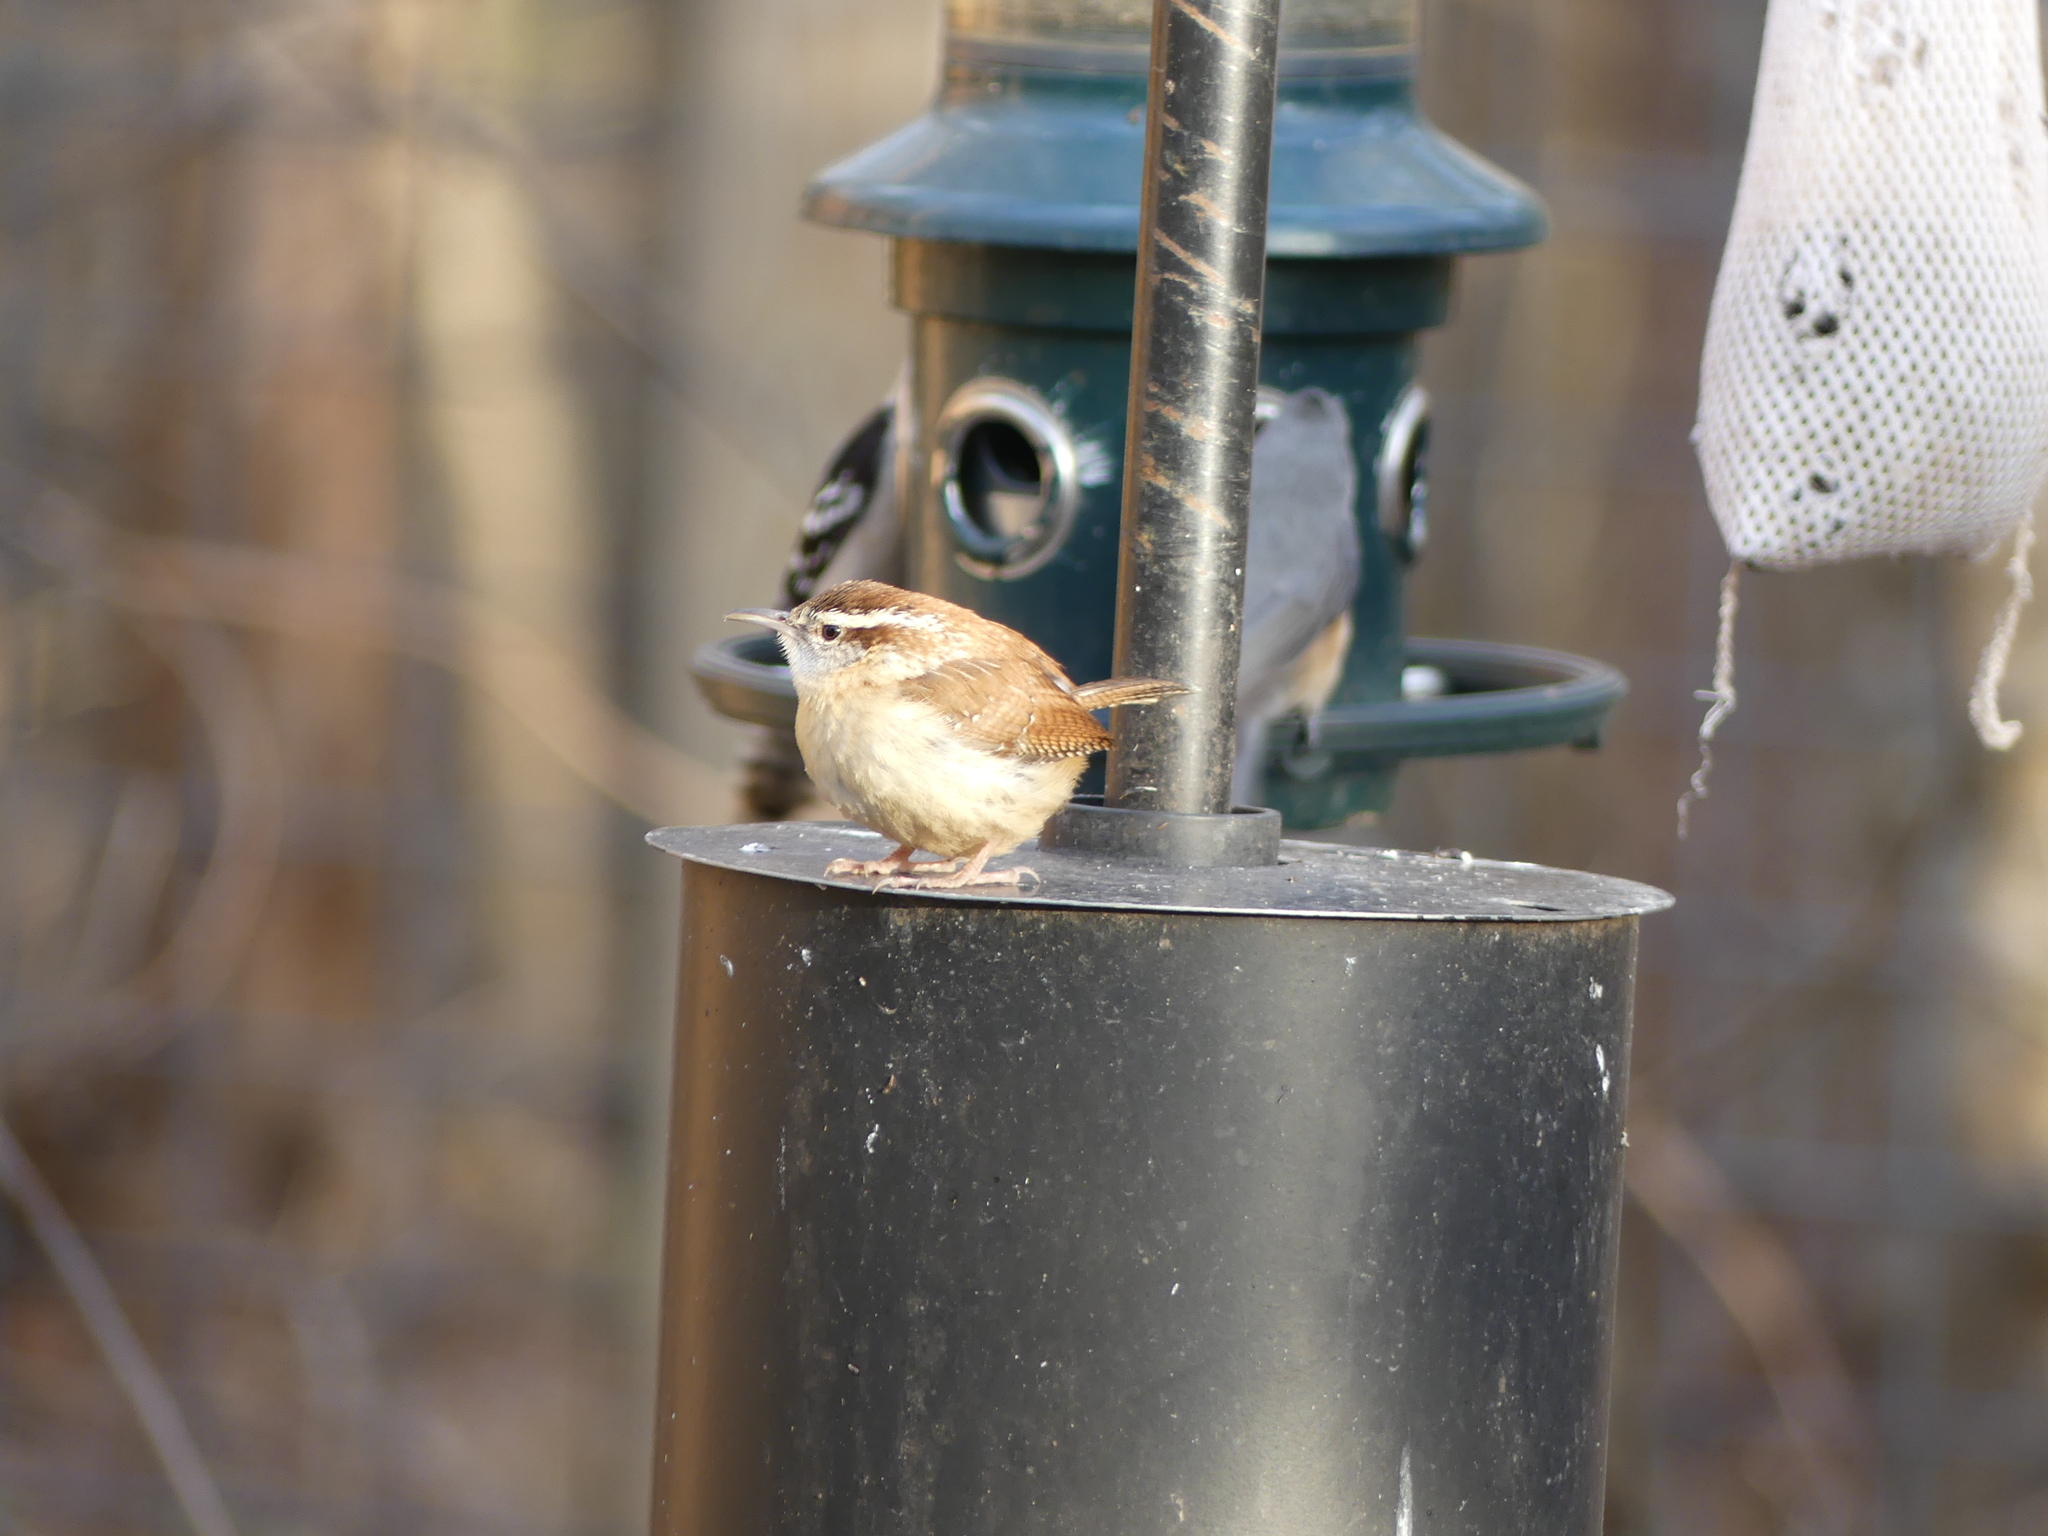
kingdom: Animalia
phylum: Chordata
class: Aves
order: Passeriformes
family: Troglodytidae
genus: Thryothorus
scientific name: Thryothorus ludovicianus
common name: Carolina wren
